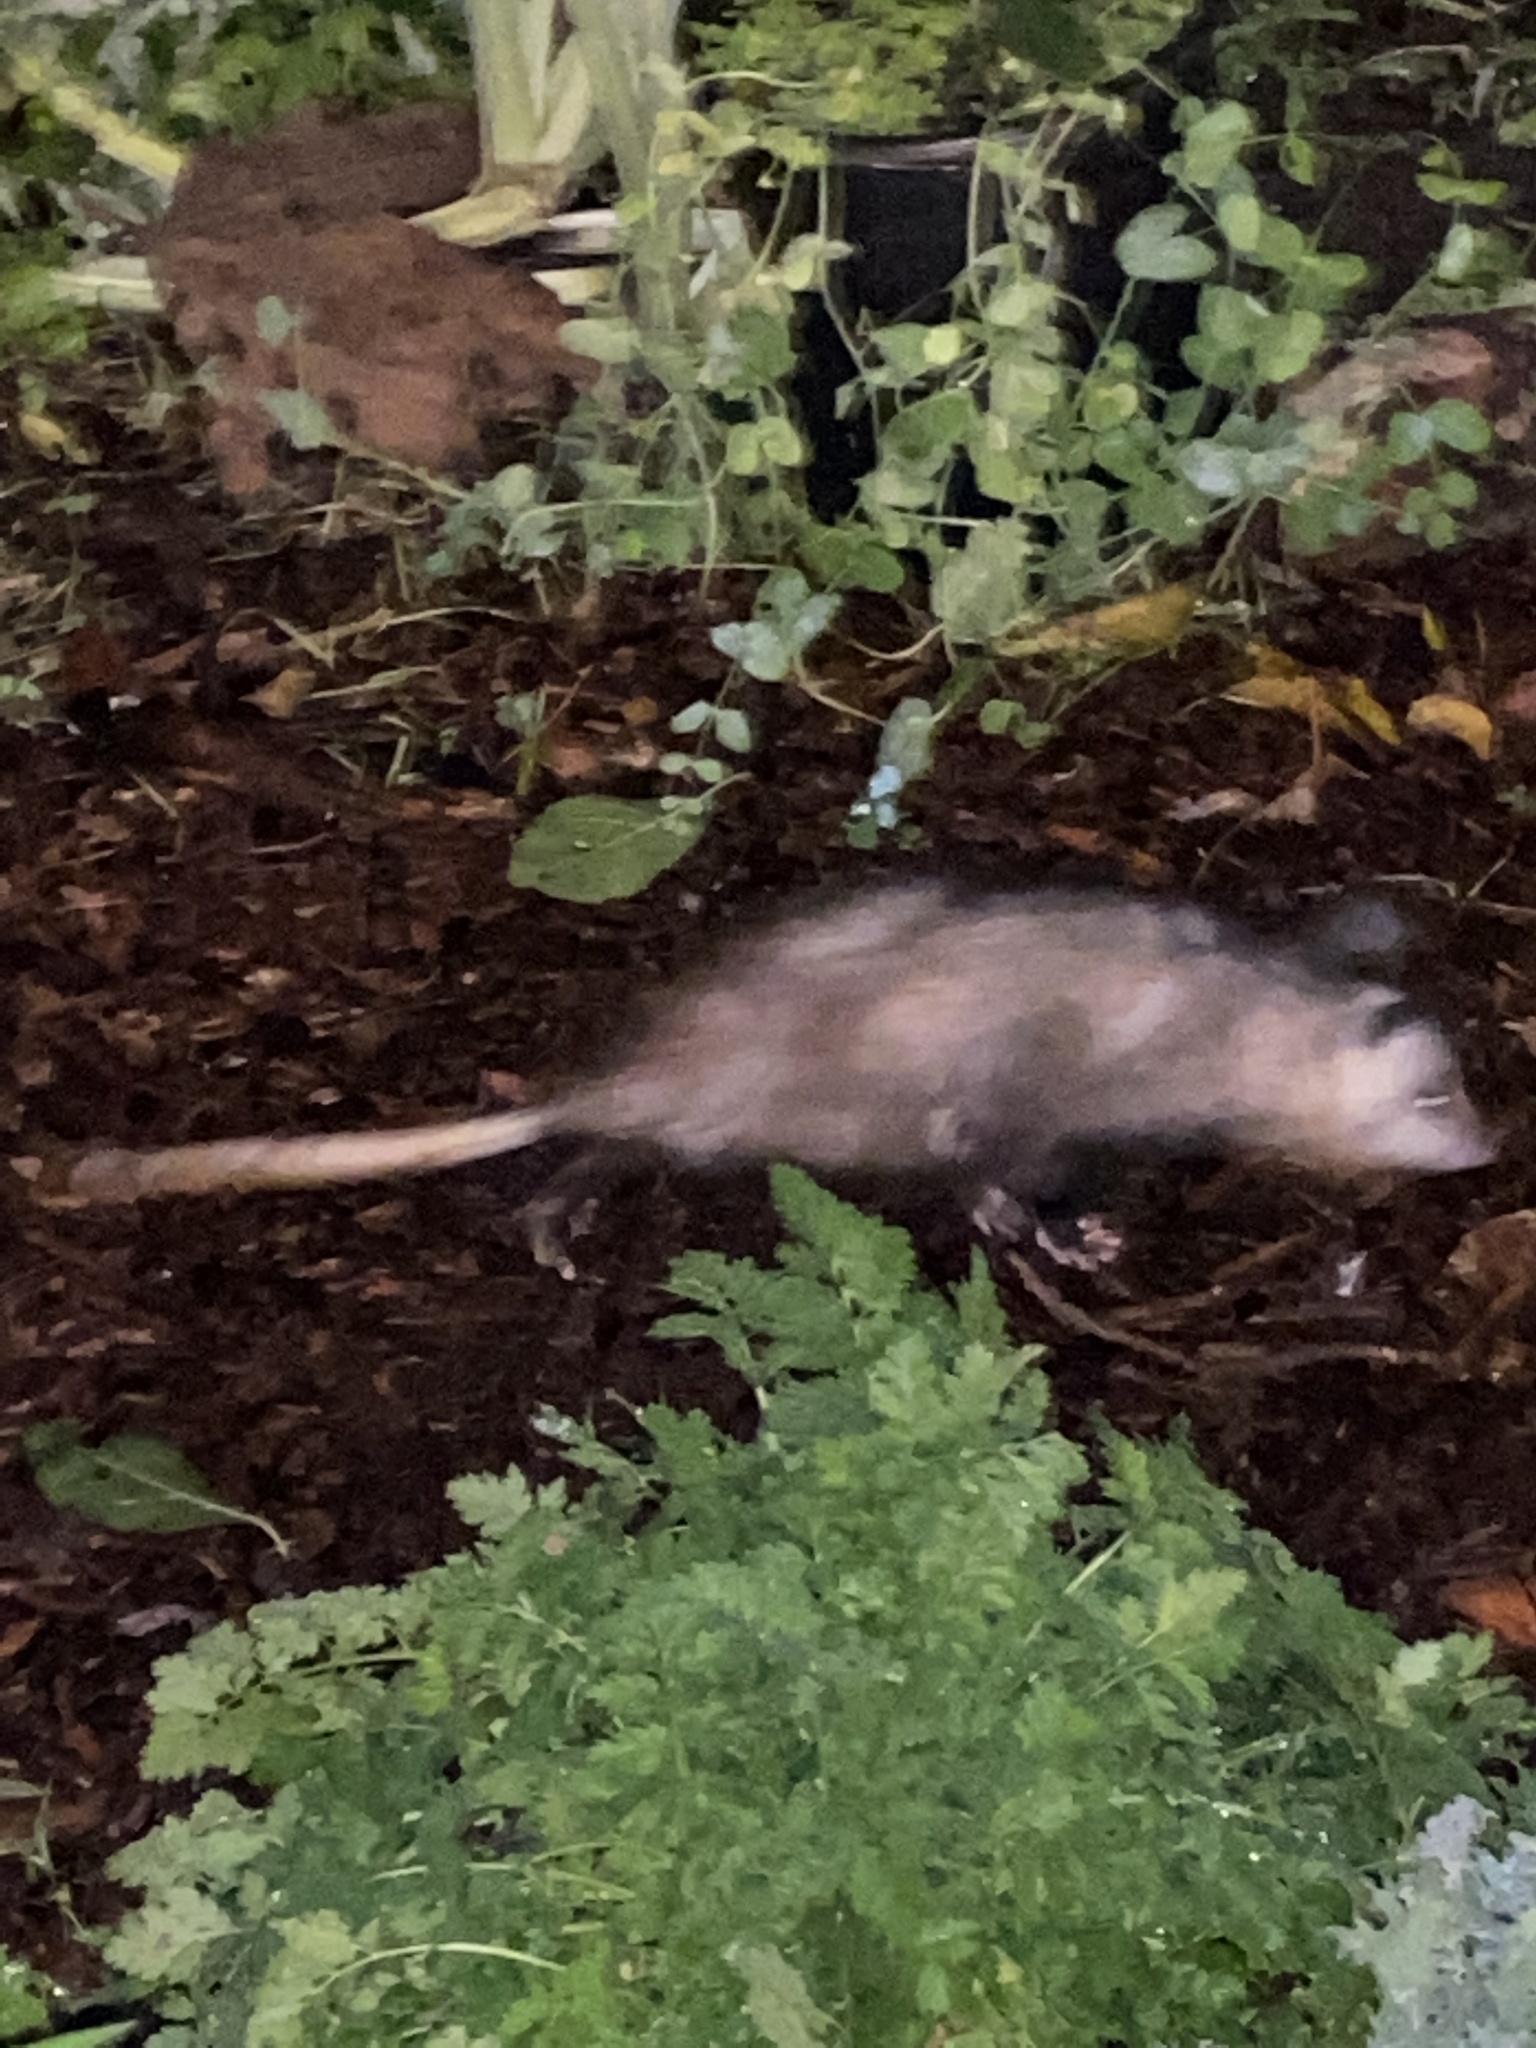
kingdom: Animalia
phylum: Chordata
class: Mammalia
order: Didelphimorphia
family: Didelphidae
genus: Didelphis
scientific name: Didelphis virginiana
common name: Virginia opossum
